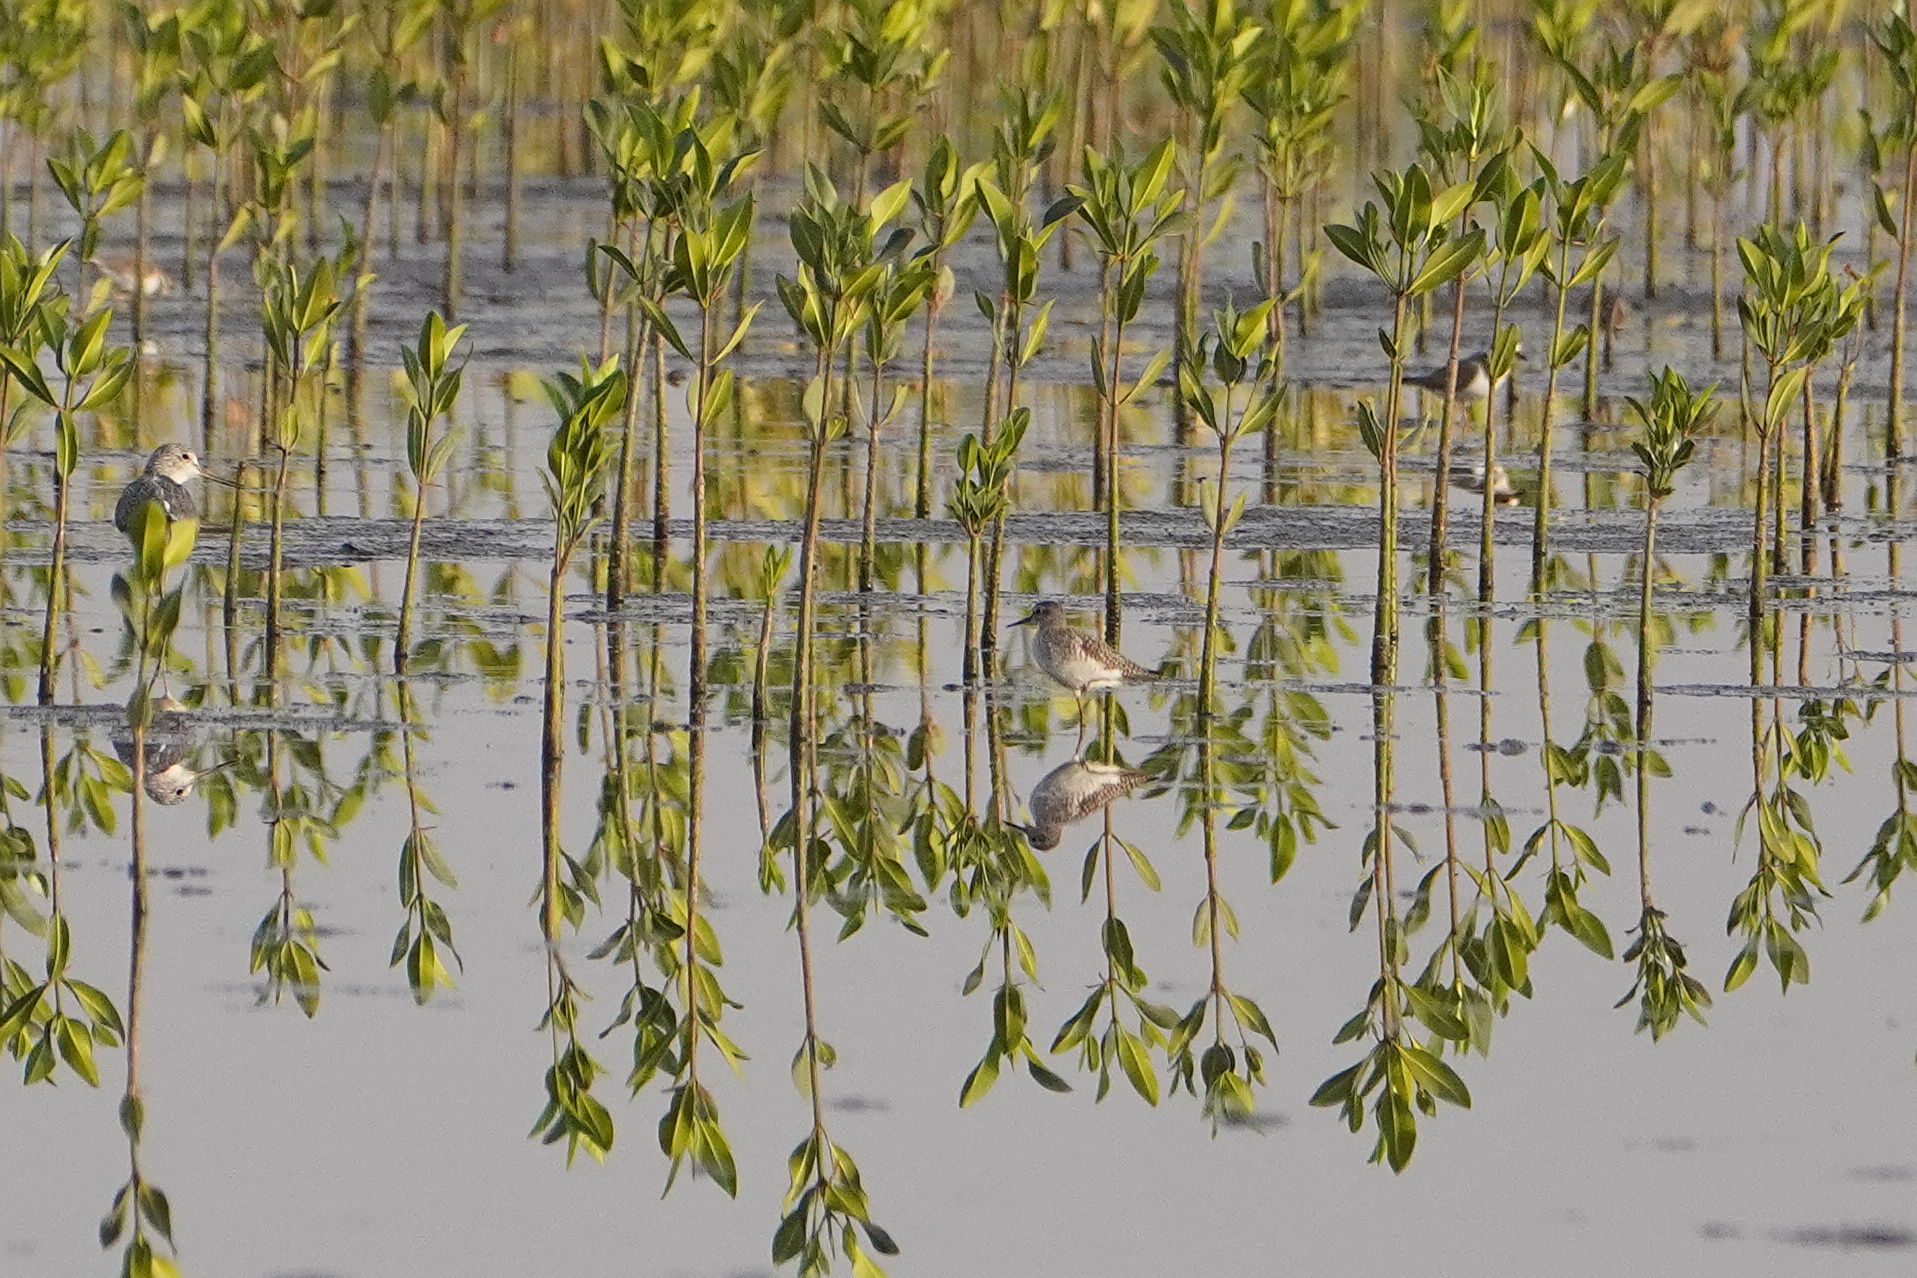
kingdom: Animalia
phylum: Chordata
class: Aves
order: Charadriiformes
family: Scolopacidae
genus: Tringa
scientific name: Tringa glareola
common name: Wood sandpiper
